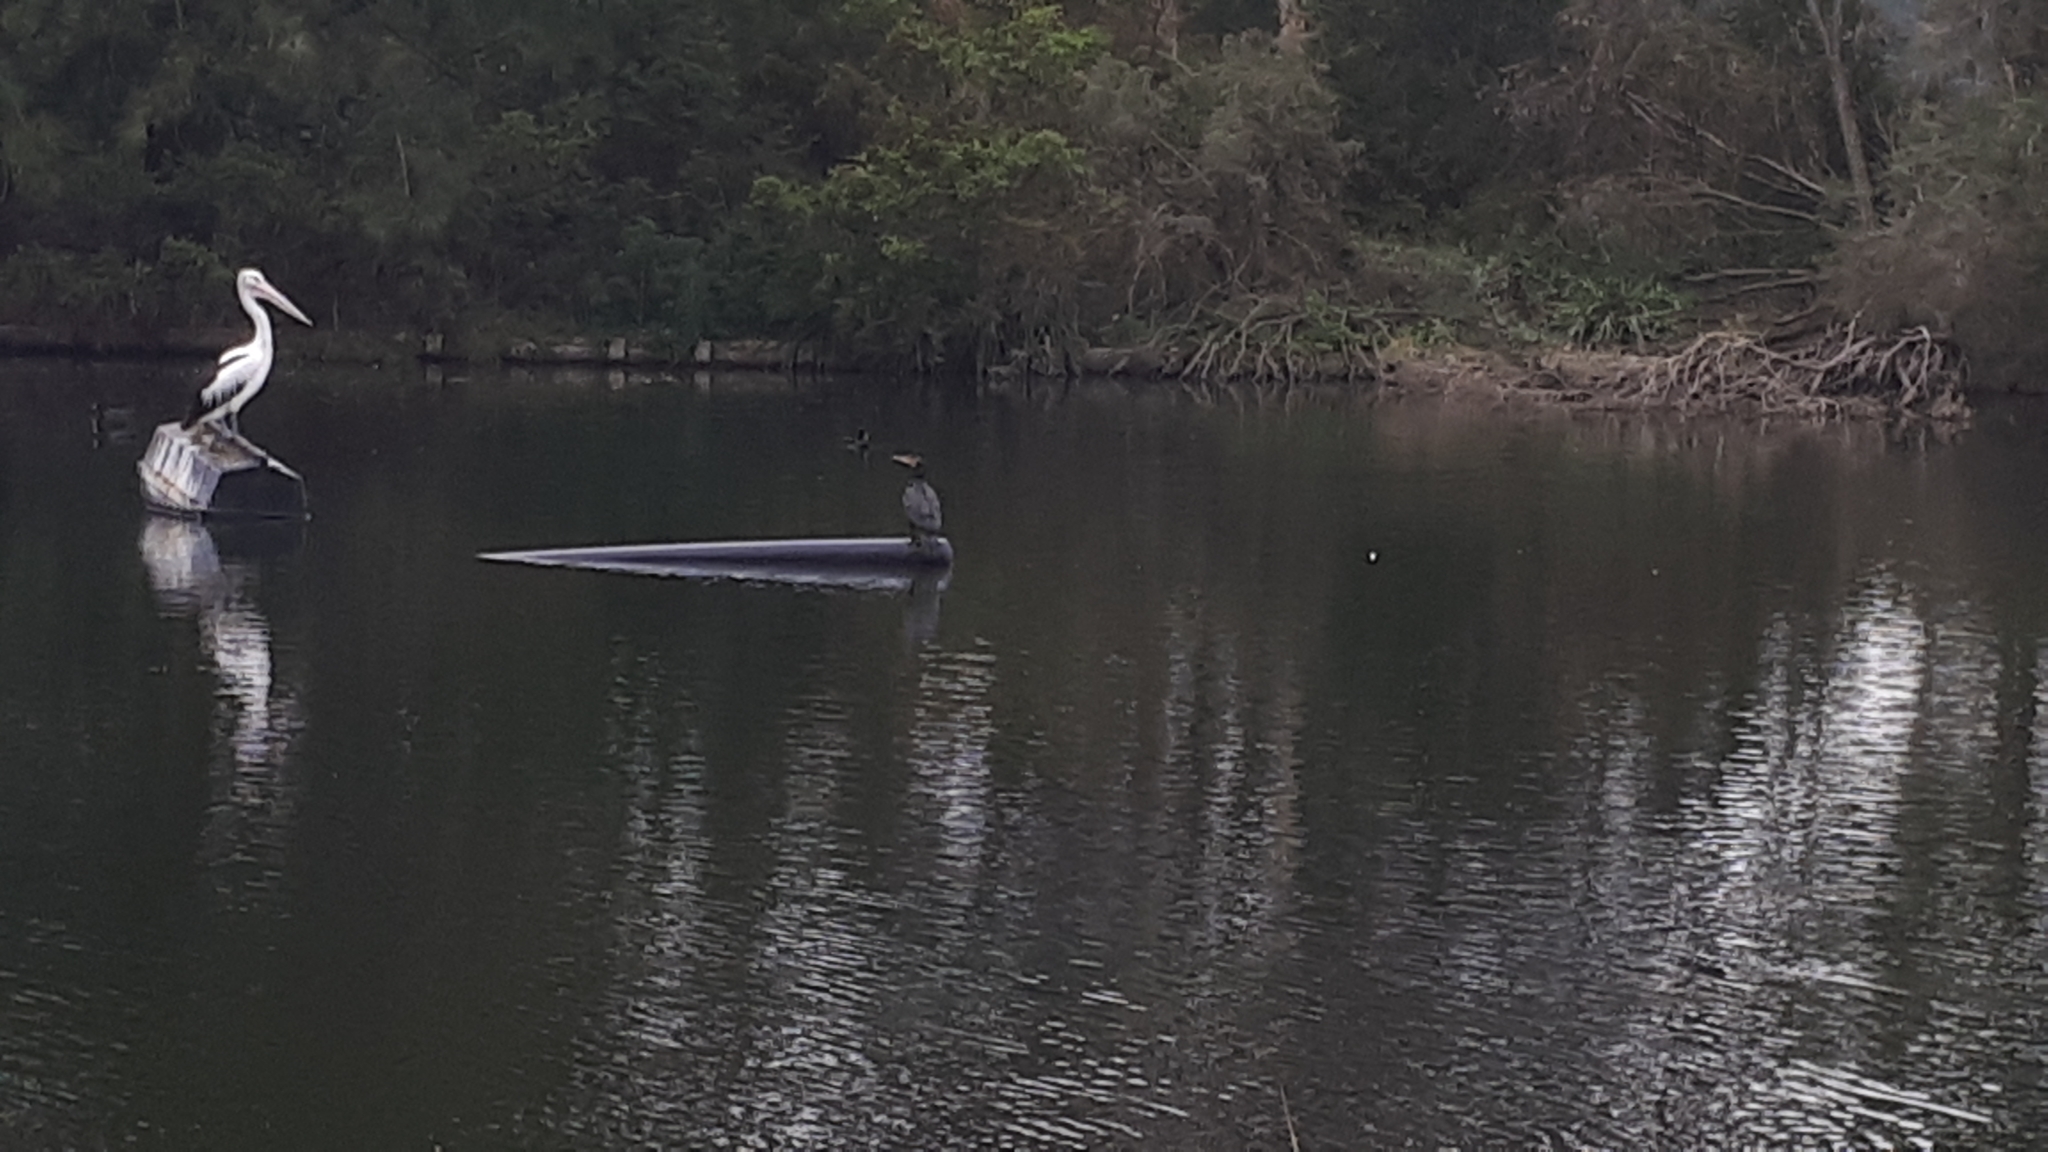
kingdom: Animalia
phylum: Chordata
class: Aves
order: Suliformes
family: Phalacrocoracidae
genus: Phalacrocorax
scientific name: Phalacrocorax carbo
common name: Great cormorant
